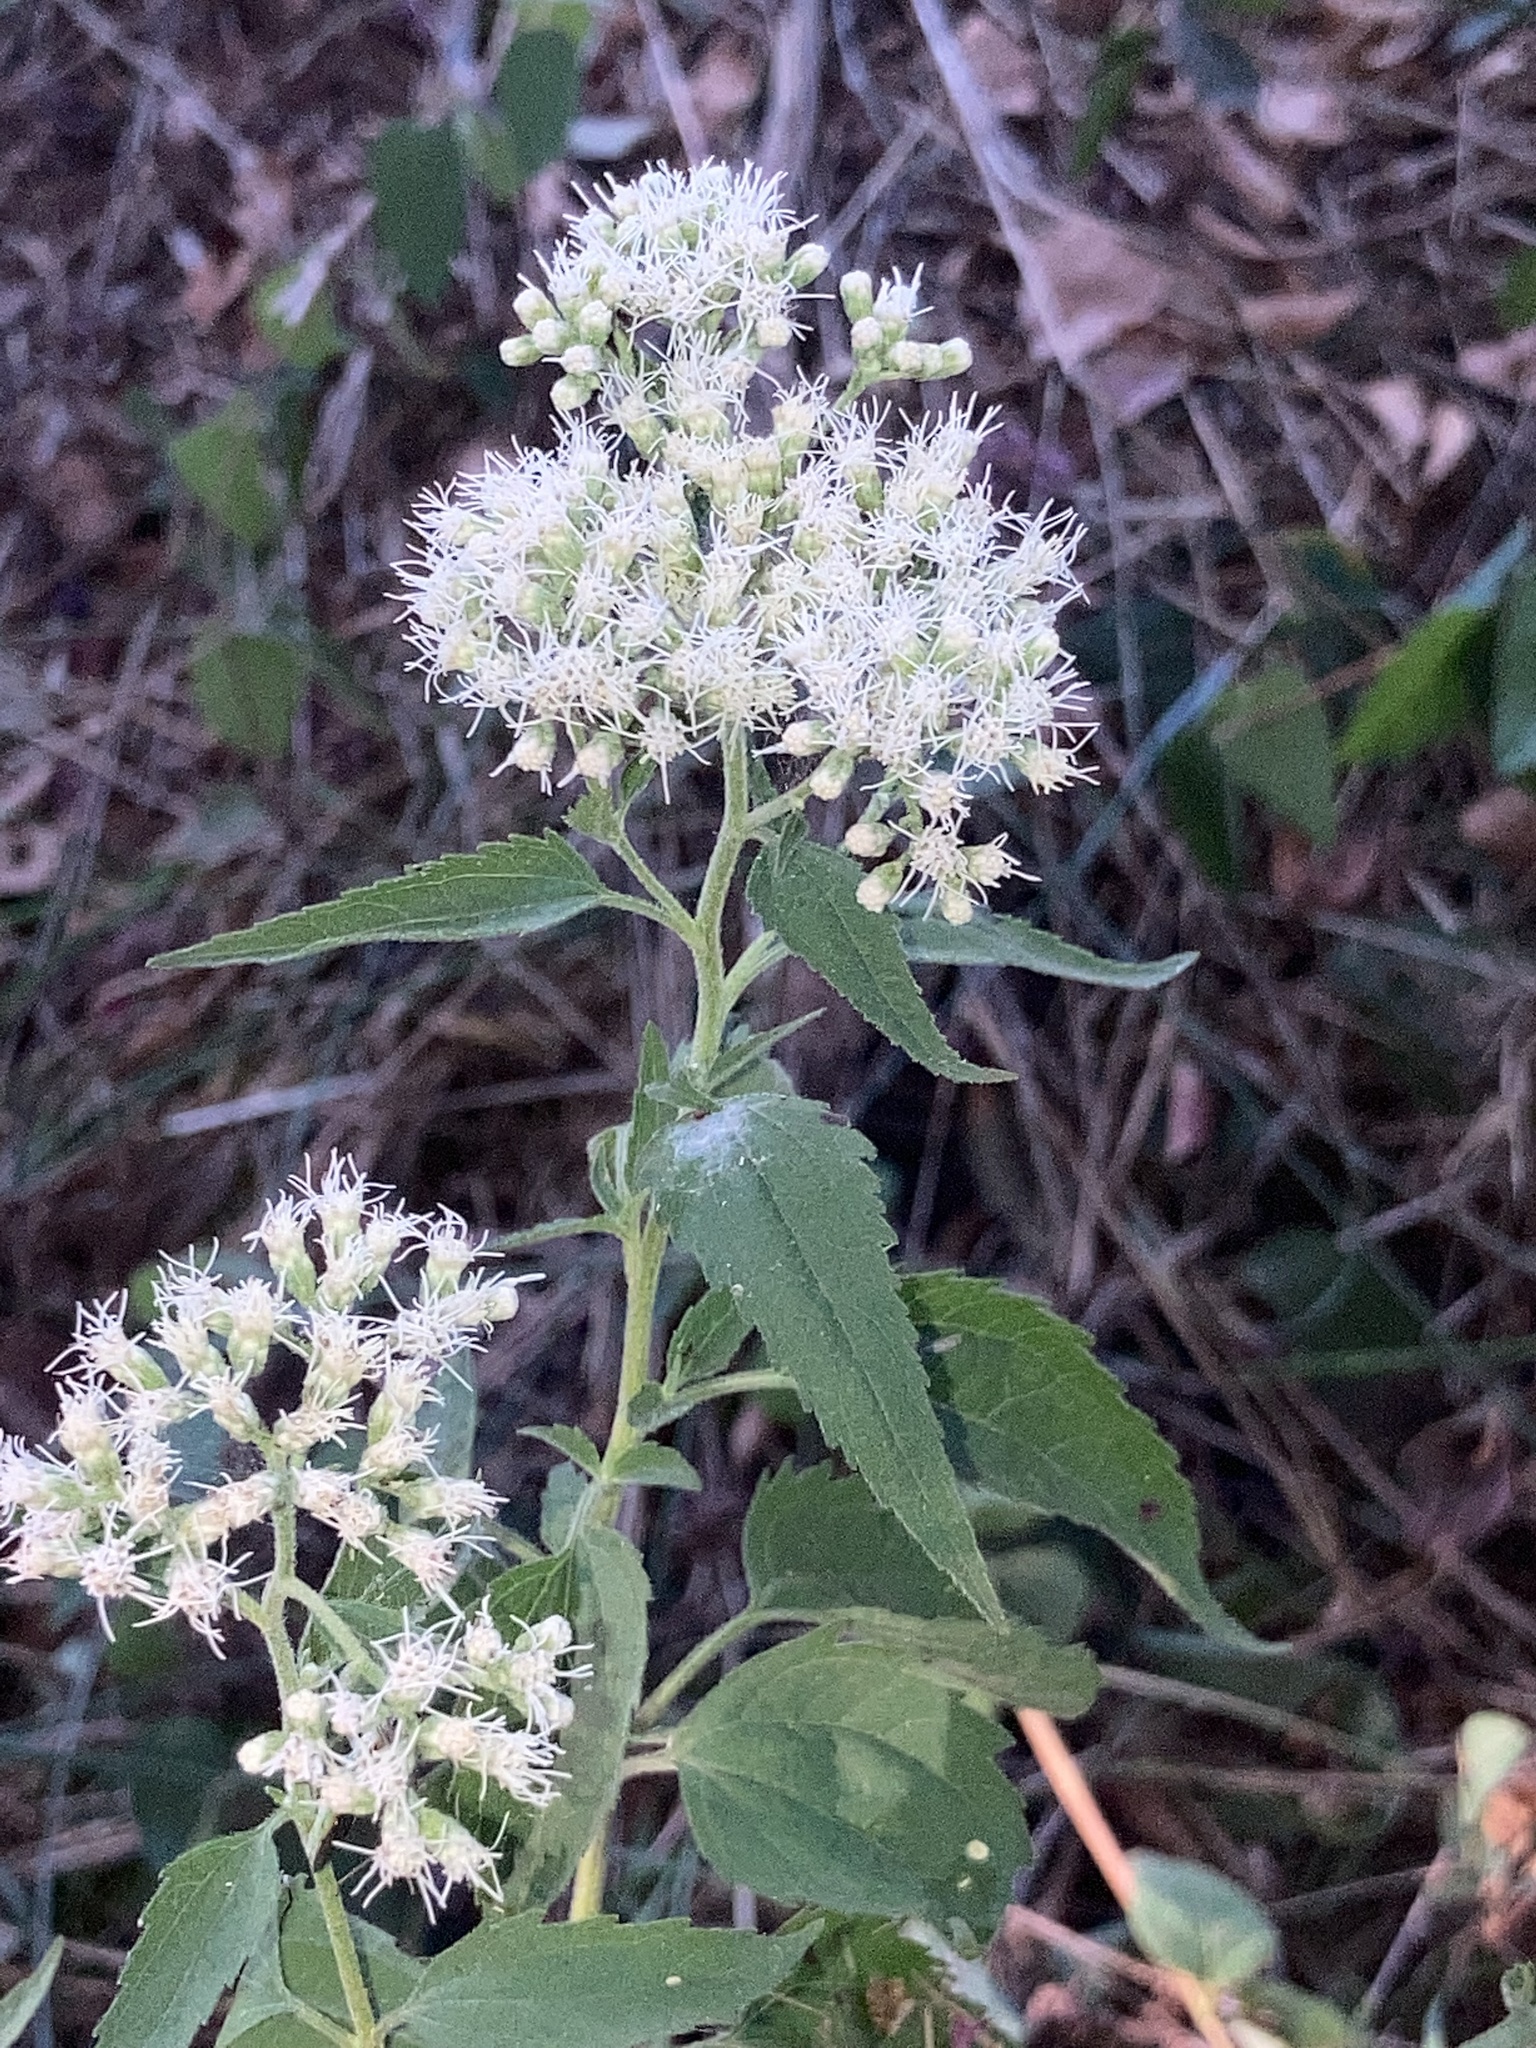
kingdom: Plantae
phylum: Tracheophyta
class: Magnoliopsida
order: Asterales
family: Asteraceae
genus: Eupatorium
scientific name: Eupatorium serotinum
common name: Late boneset
